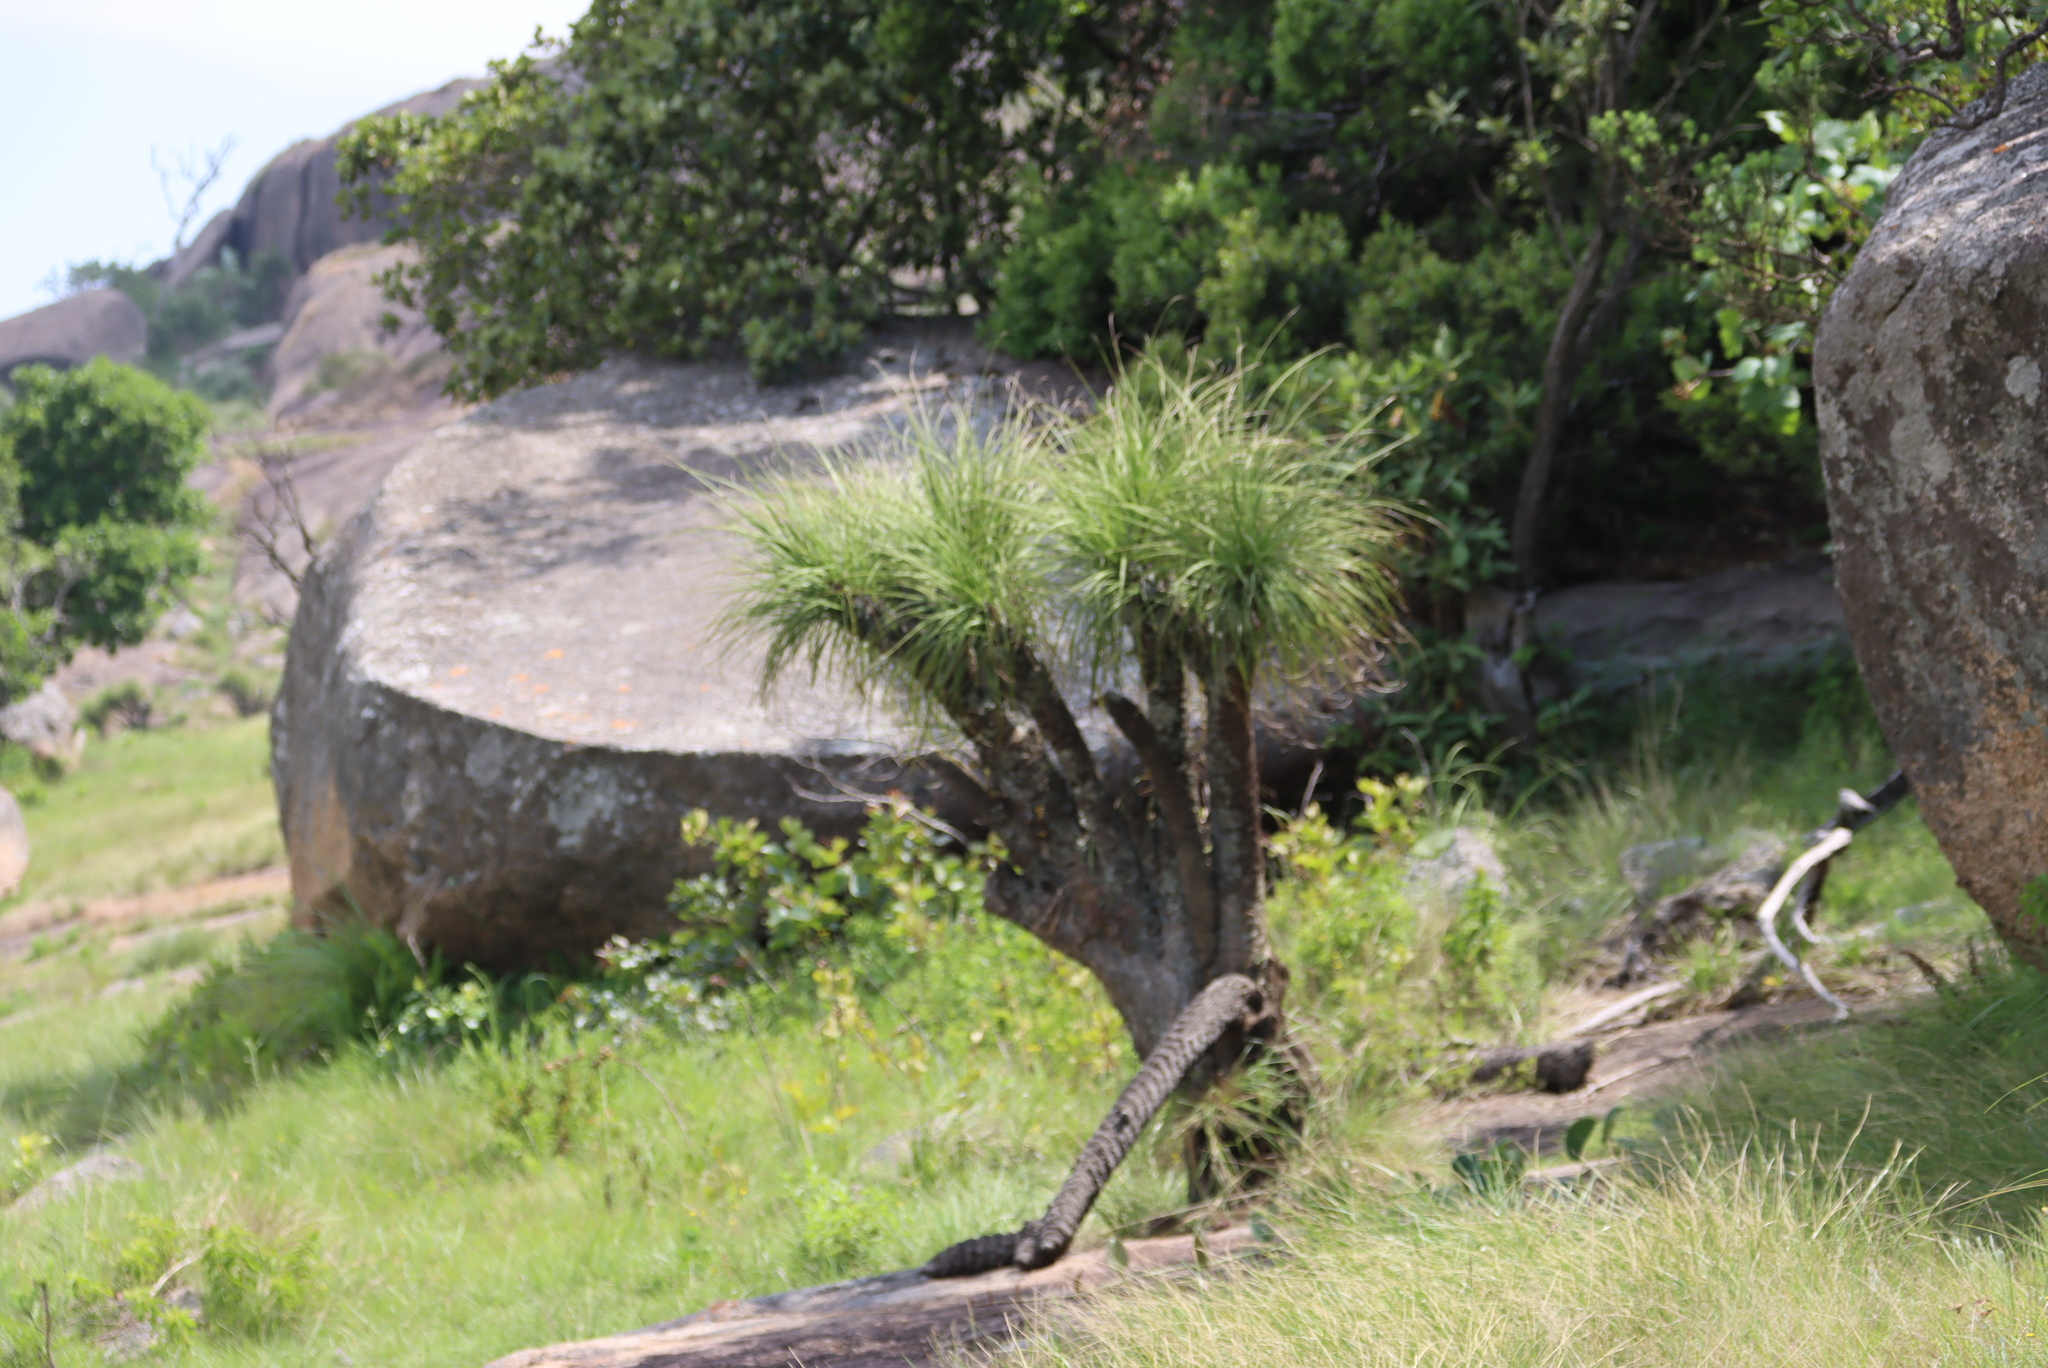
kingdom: Plantae
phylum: Tracheophyta
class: Liliopsida
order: Pandanales
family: Velloziaceae
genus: Xerophyta
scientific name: Xerophyta retinervis
